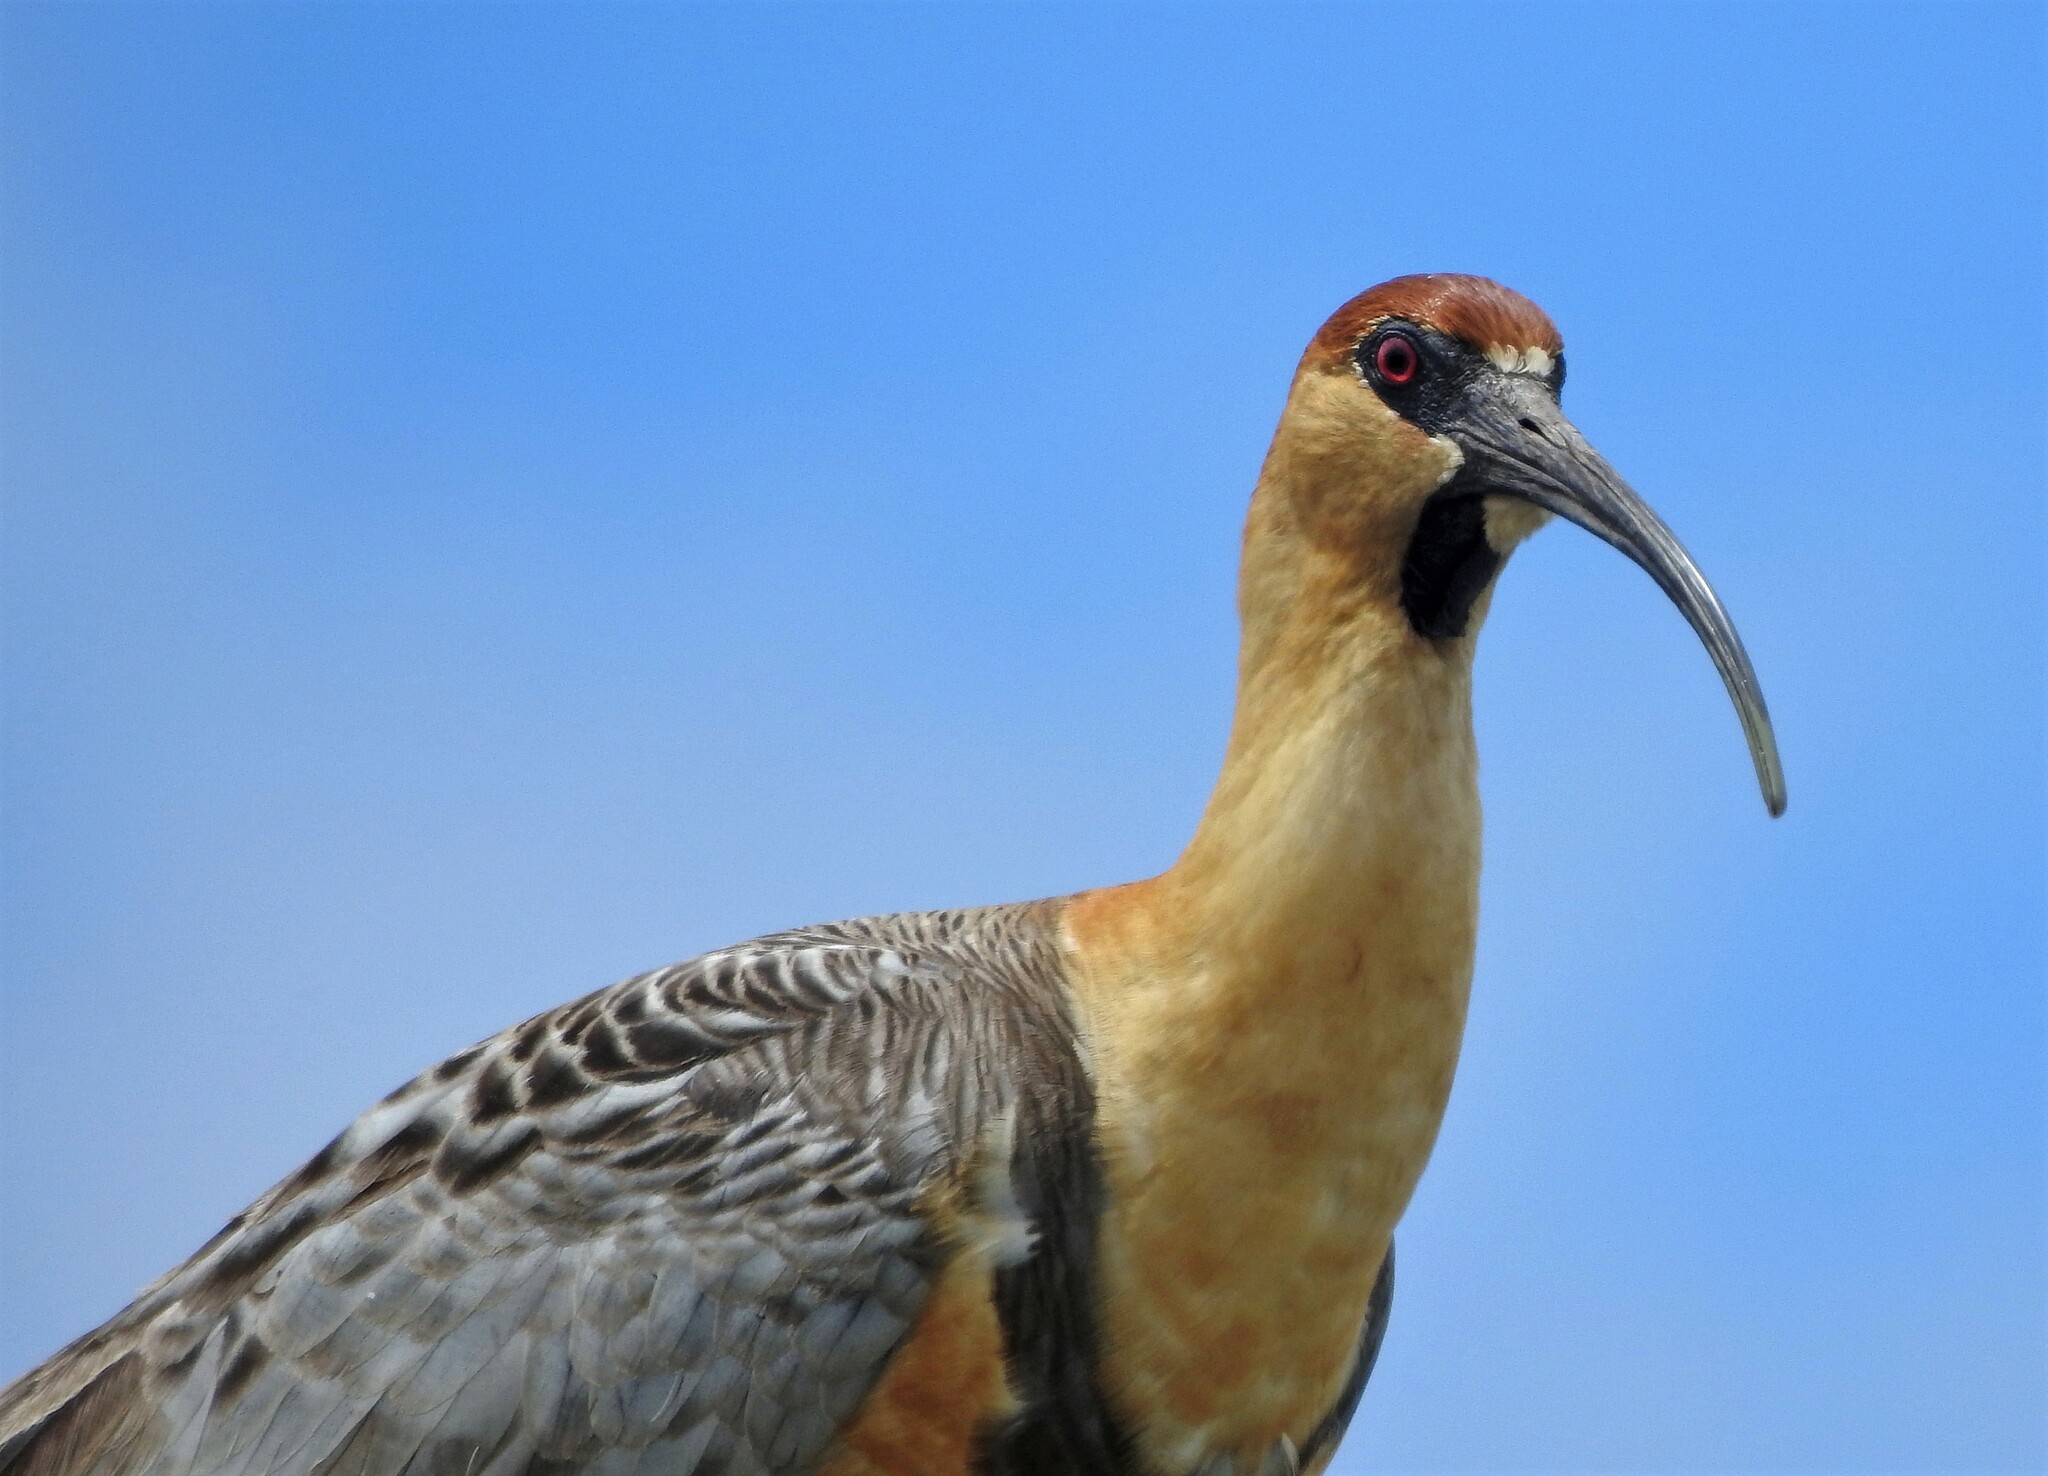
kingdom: Animalia
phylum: Chordata
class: Aves
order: Pelecaniformes
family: Threskiornithidae
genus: Theristicus
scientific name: Theristicus melanopis
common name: Black-faced ibis
